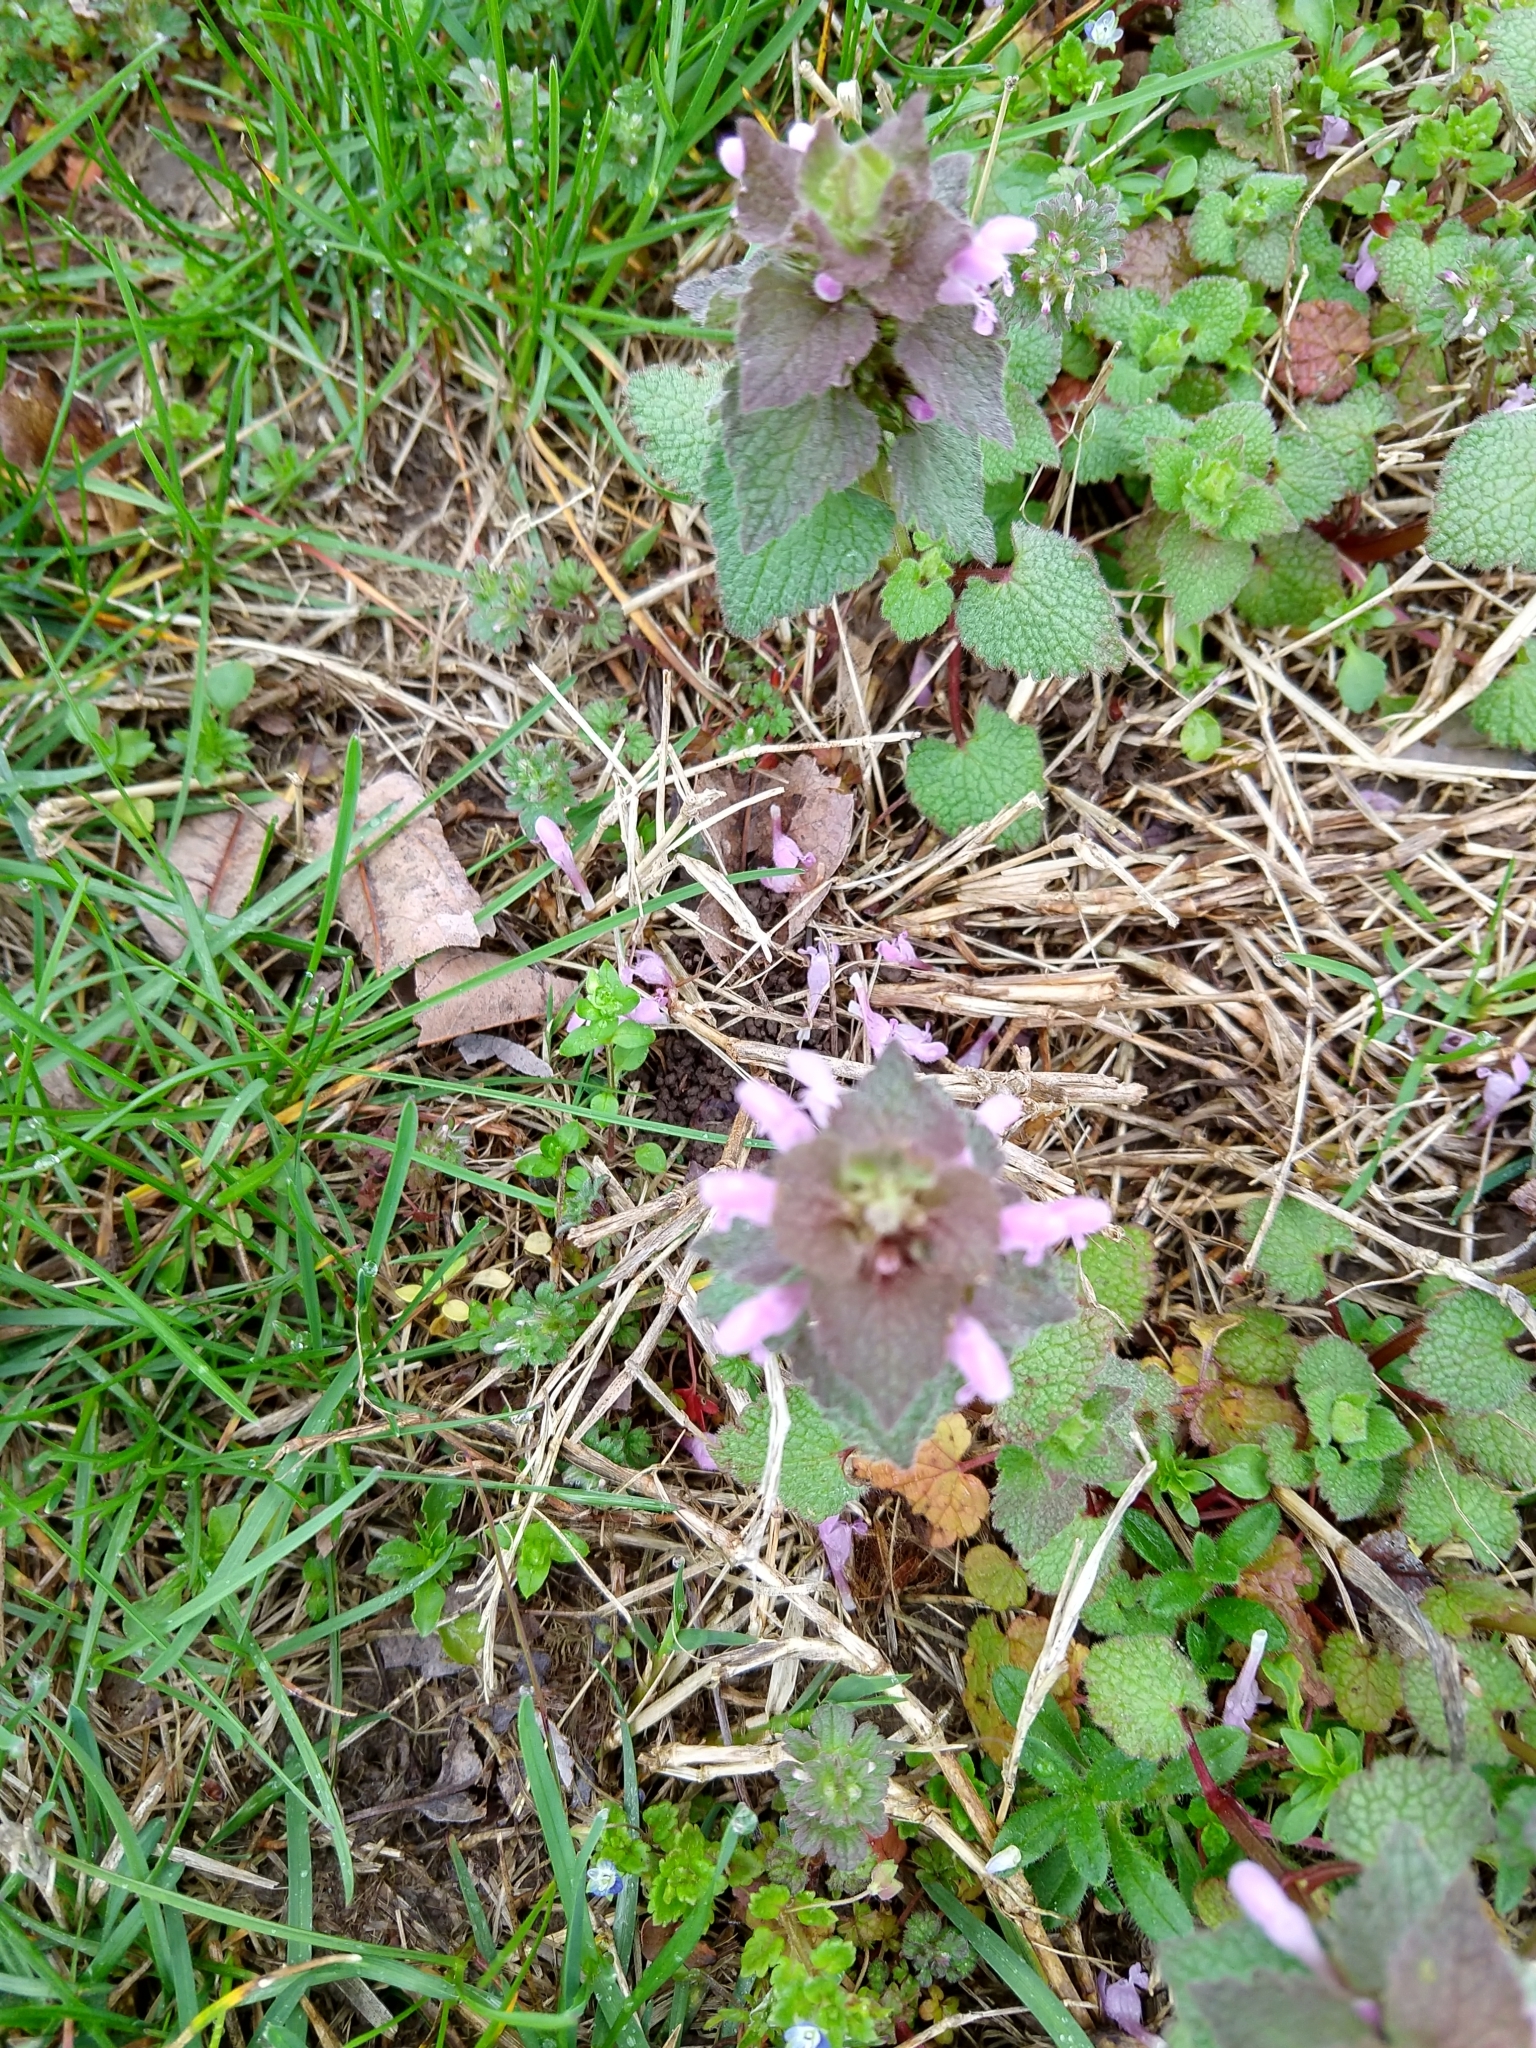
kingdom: Plantae
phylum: Tracheophyta
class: Magnoliopsida
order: Lamiales
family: Lamiaceae
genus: Lamium
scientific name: Lamium purpureum
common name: Red dead-nettle
